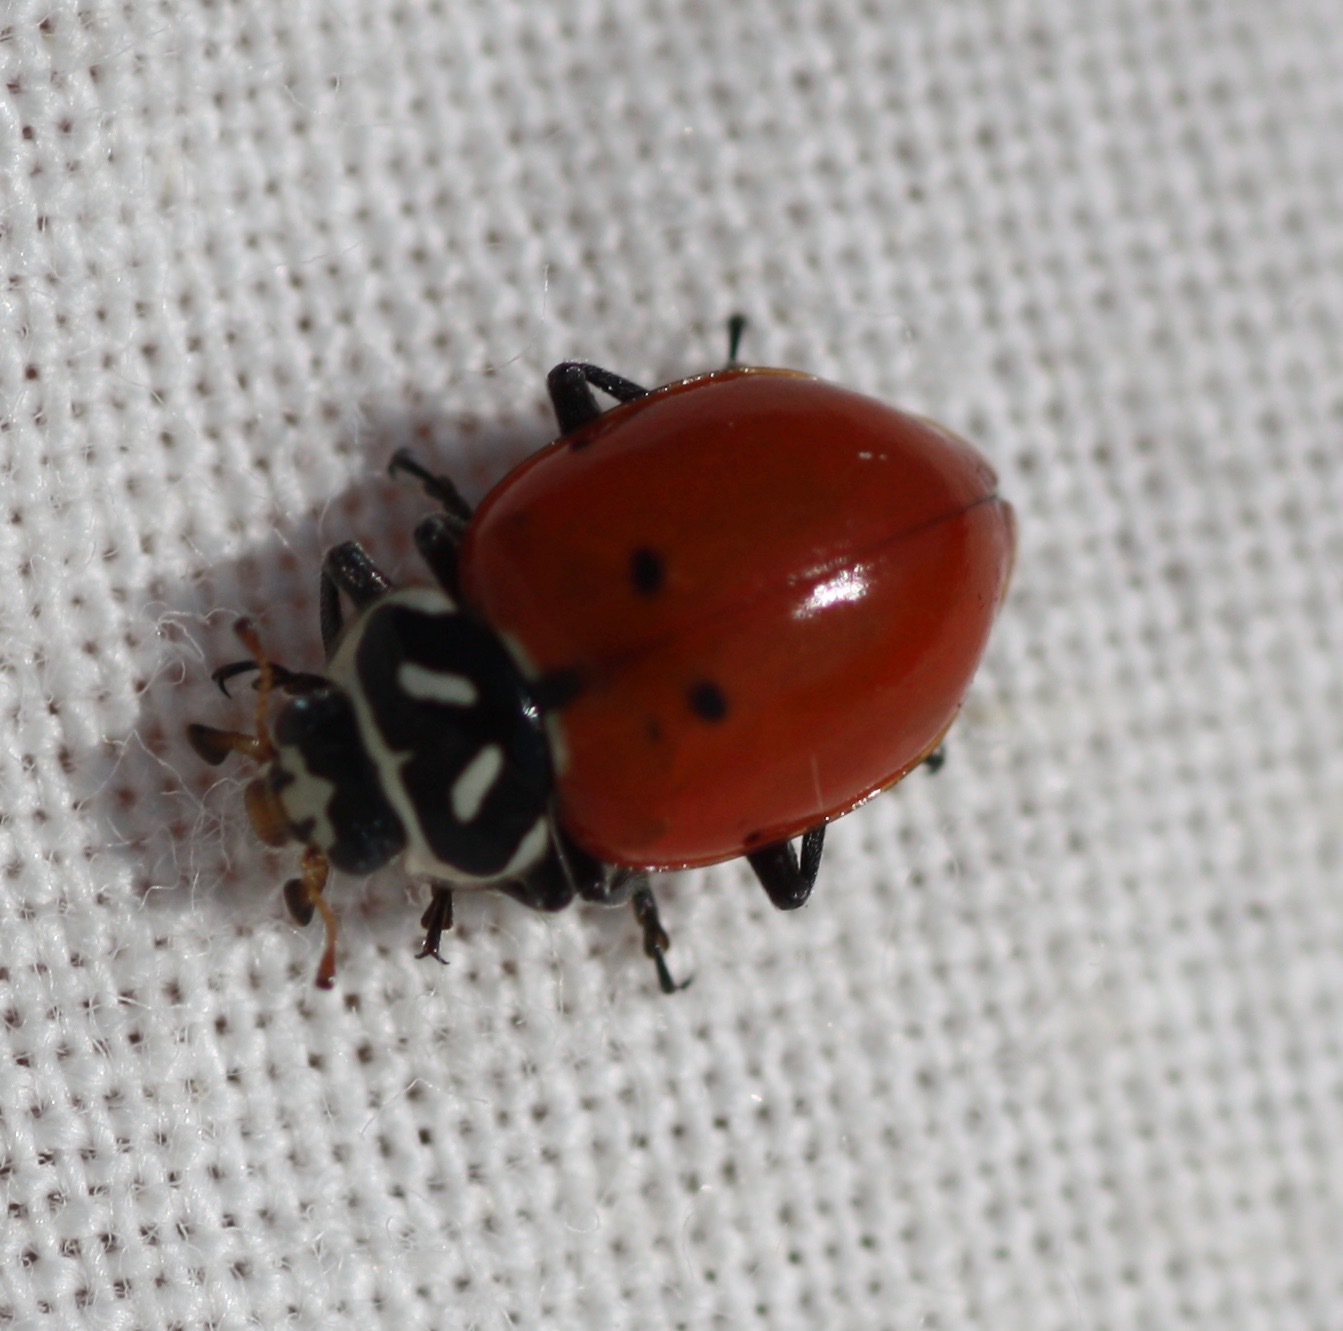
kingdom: Animalia
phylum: Arthropoda
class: Insecta
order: Coleoptera
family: Coccinellidae
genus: Hippodamia
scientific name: Hippodamia convergens
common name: Convergent lady beetle
